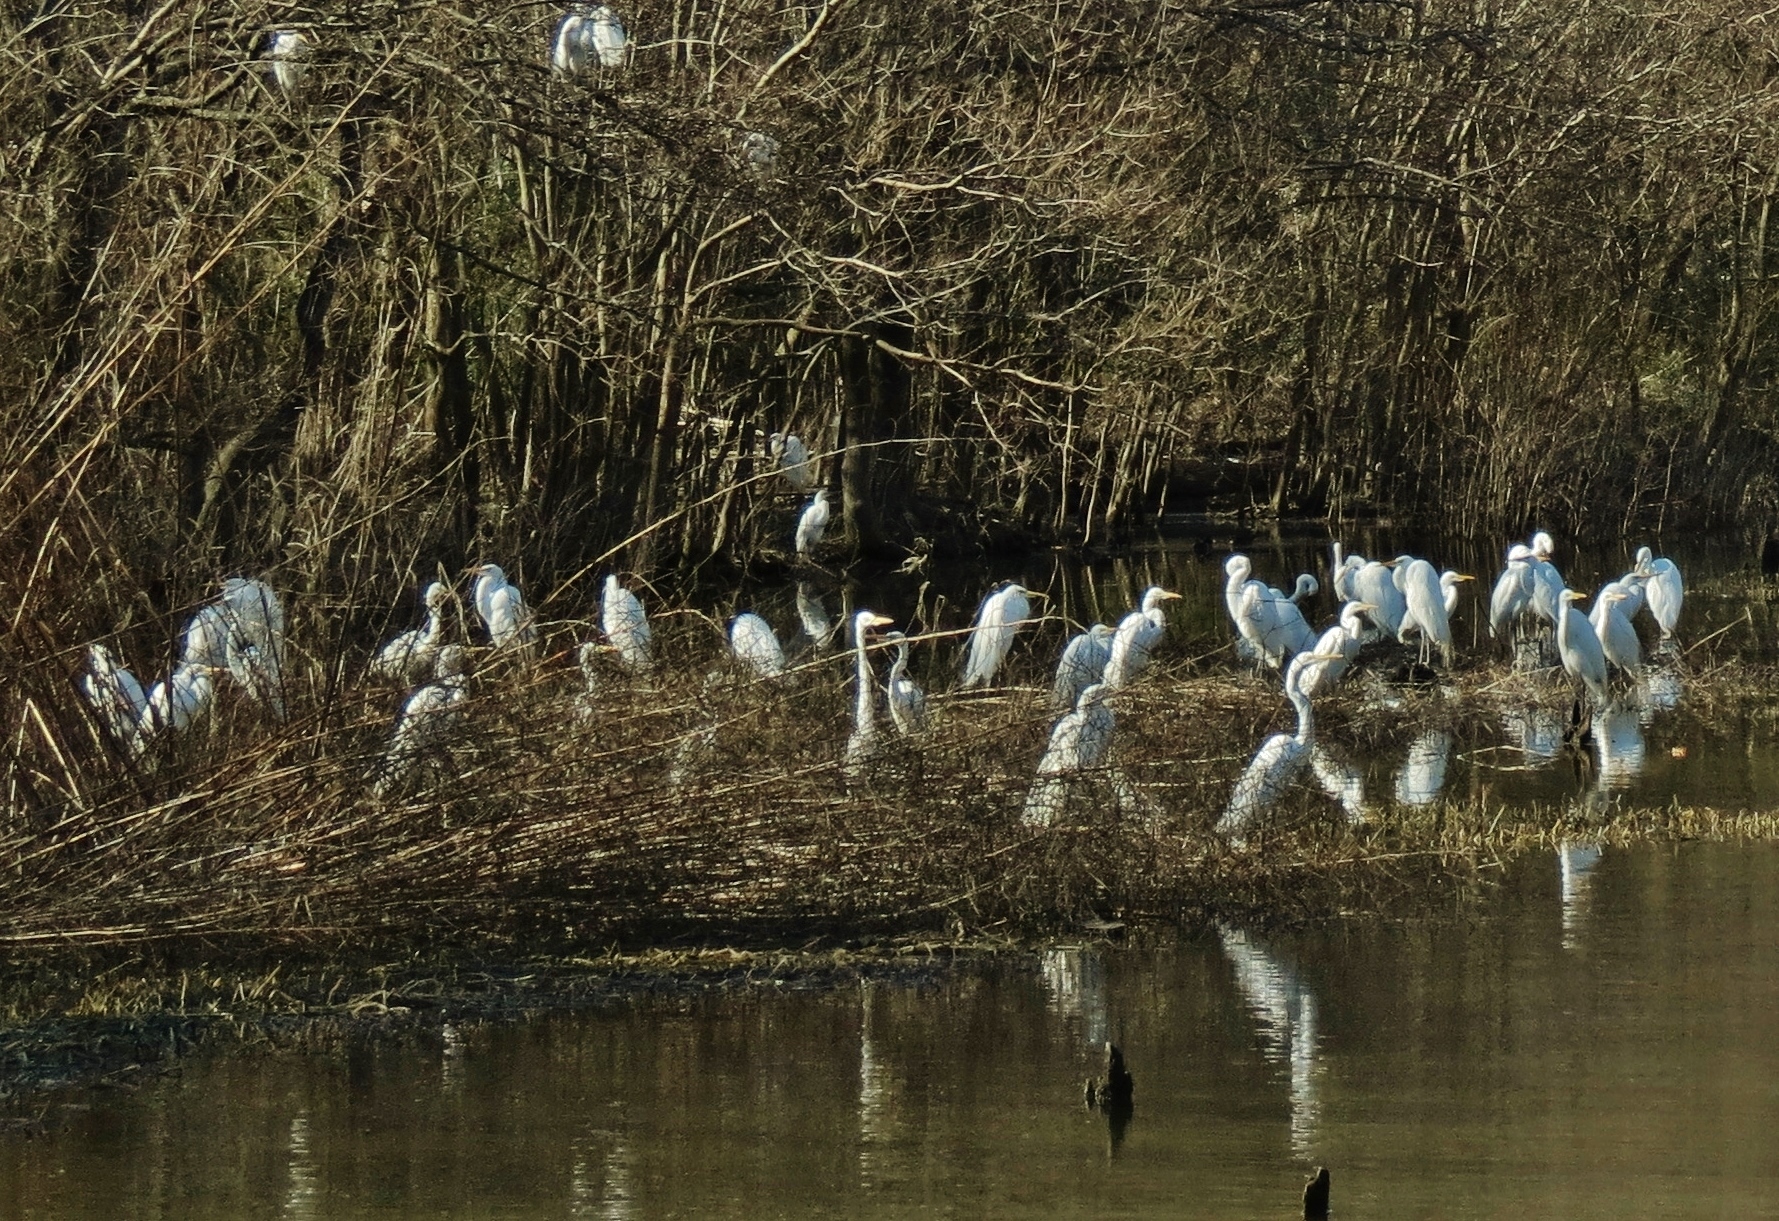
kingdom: Animalia
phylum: Chordata
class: Aves
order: Pelecaniformes
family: Ardeidae
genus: Ardea
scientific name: Ardea alba
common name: Great egret
